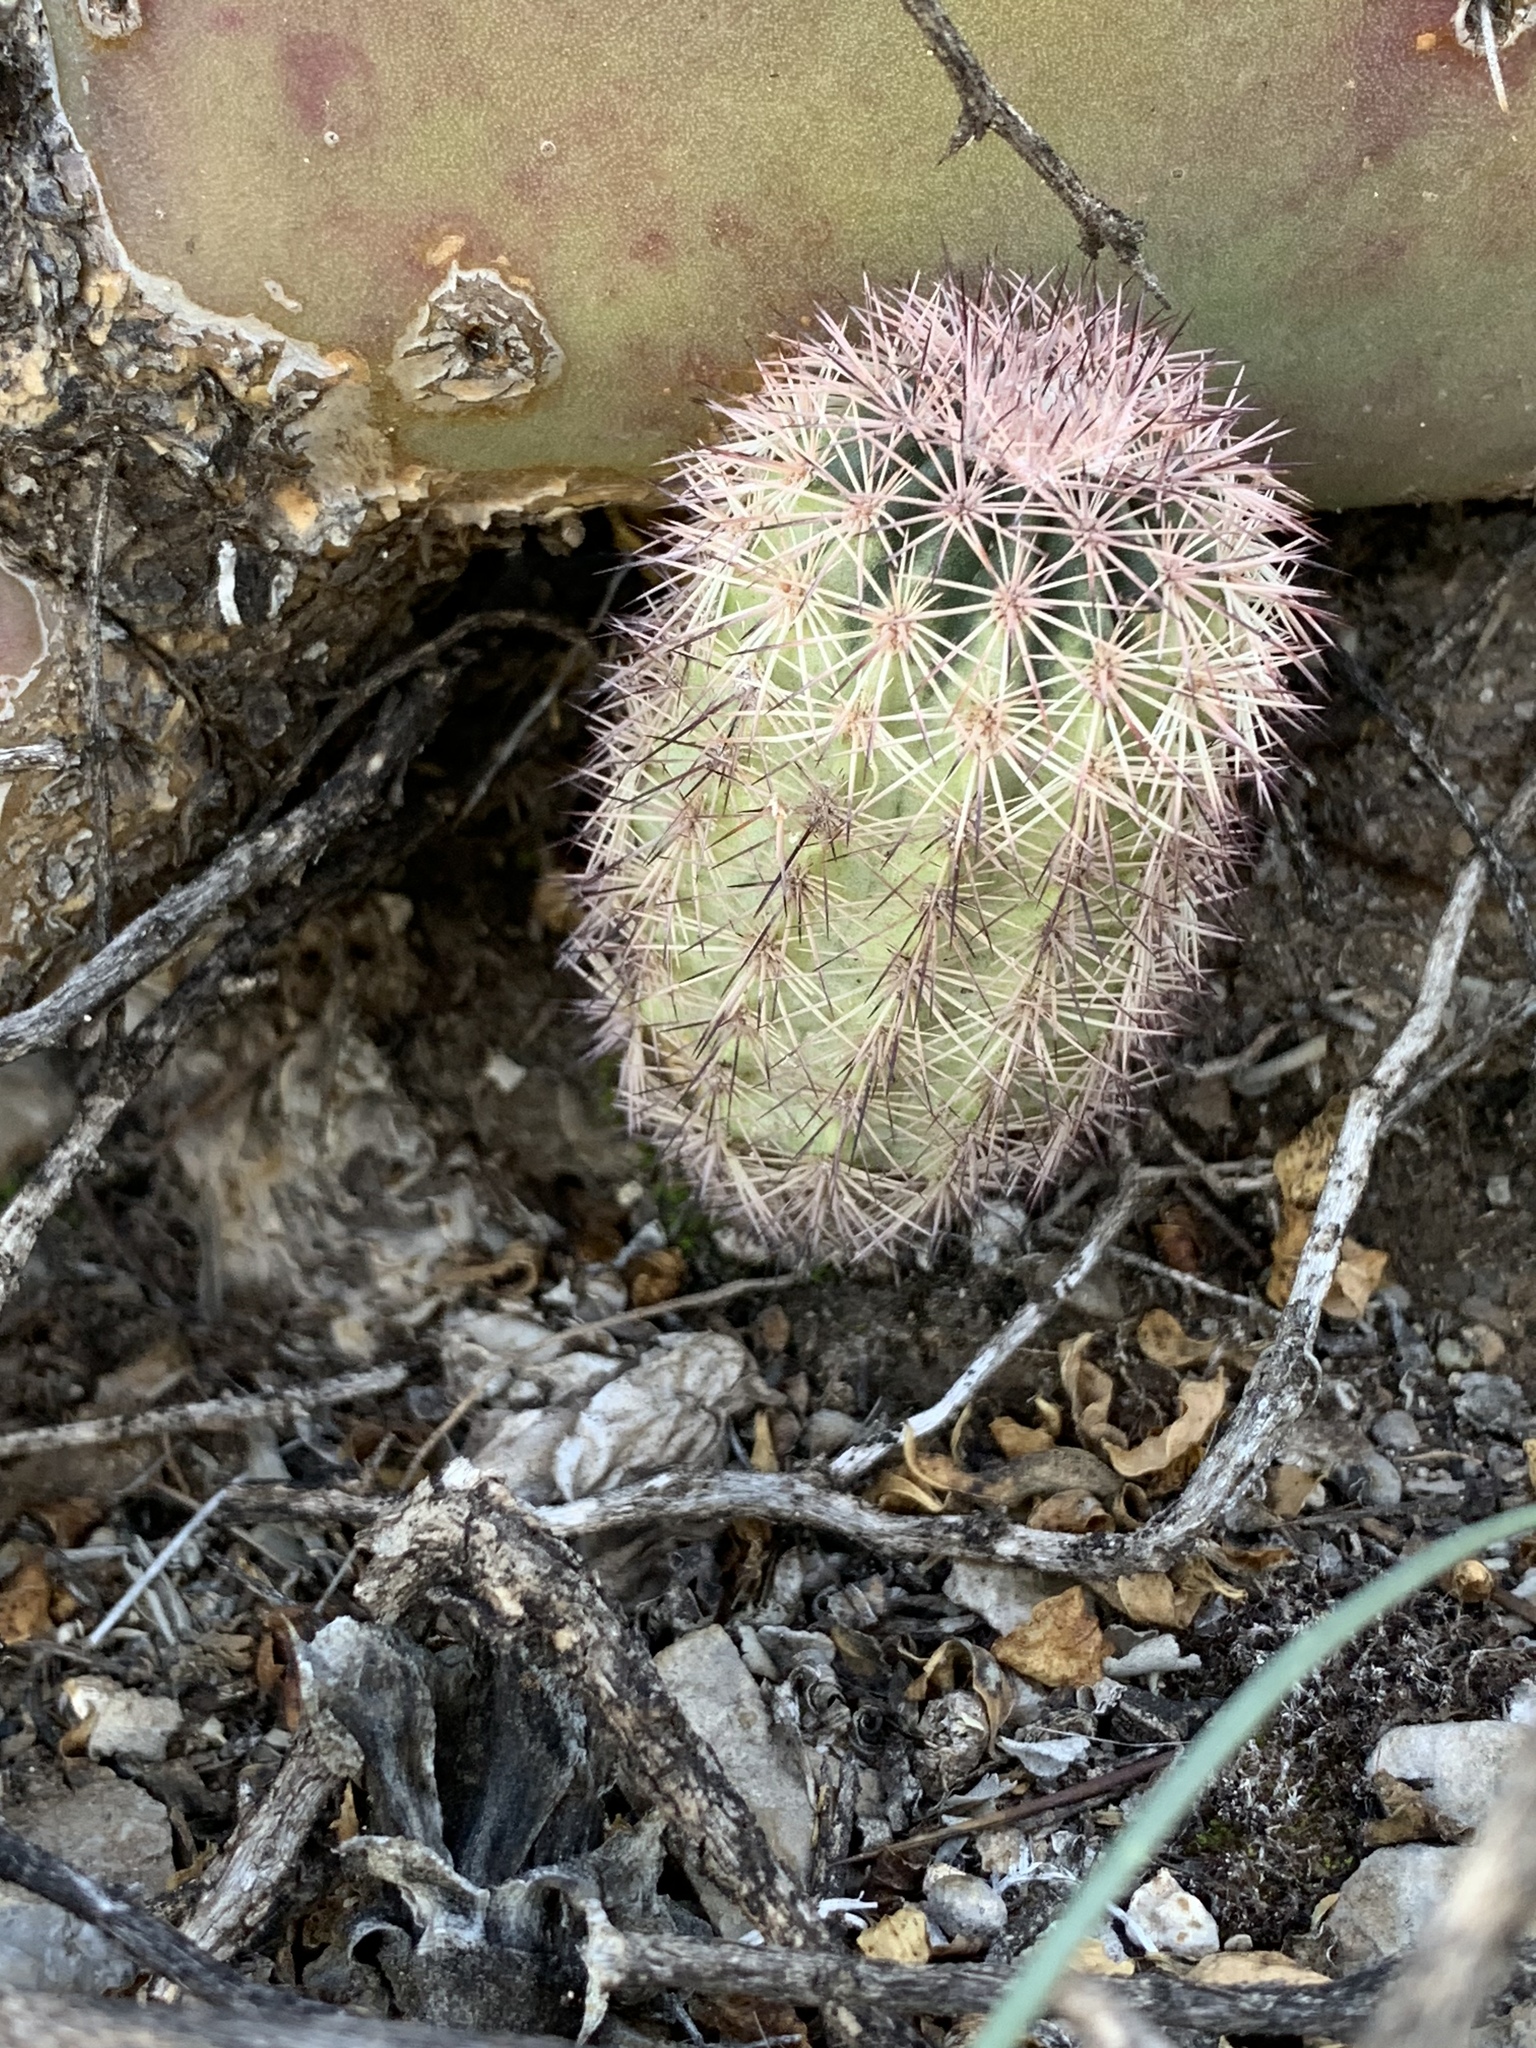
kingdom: Plantae
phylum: Tracheophyta
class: Magnoliopsida
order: Caryophyllales
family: Cactaceae
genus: Echinocereus
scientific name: Echinocereus dasyacanthus
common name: Spiny hedgehog cactus
